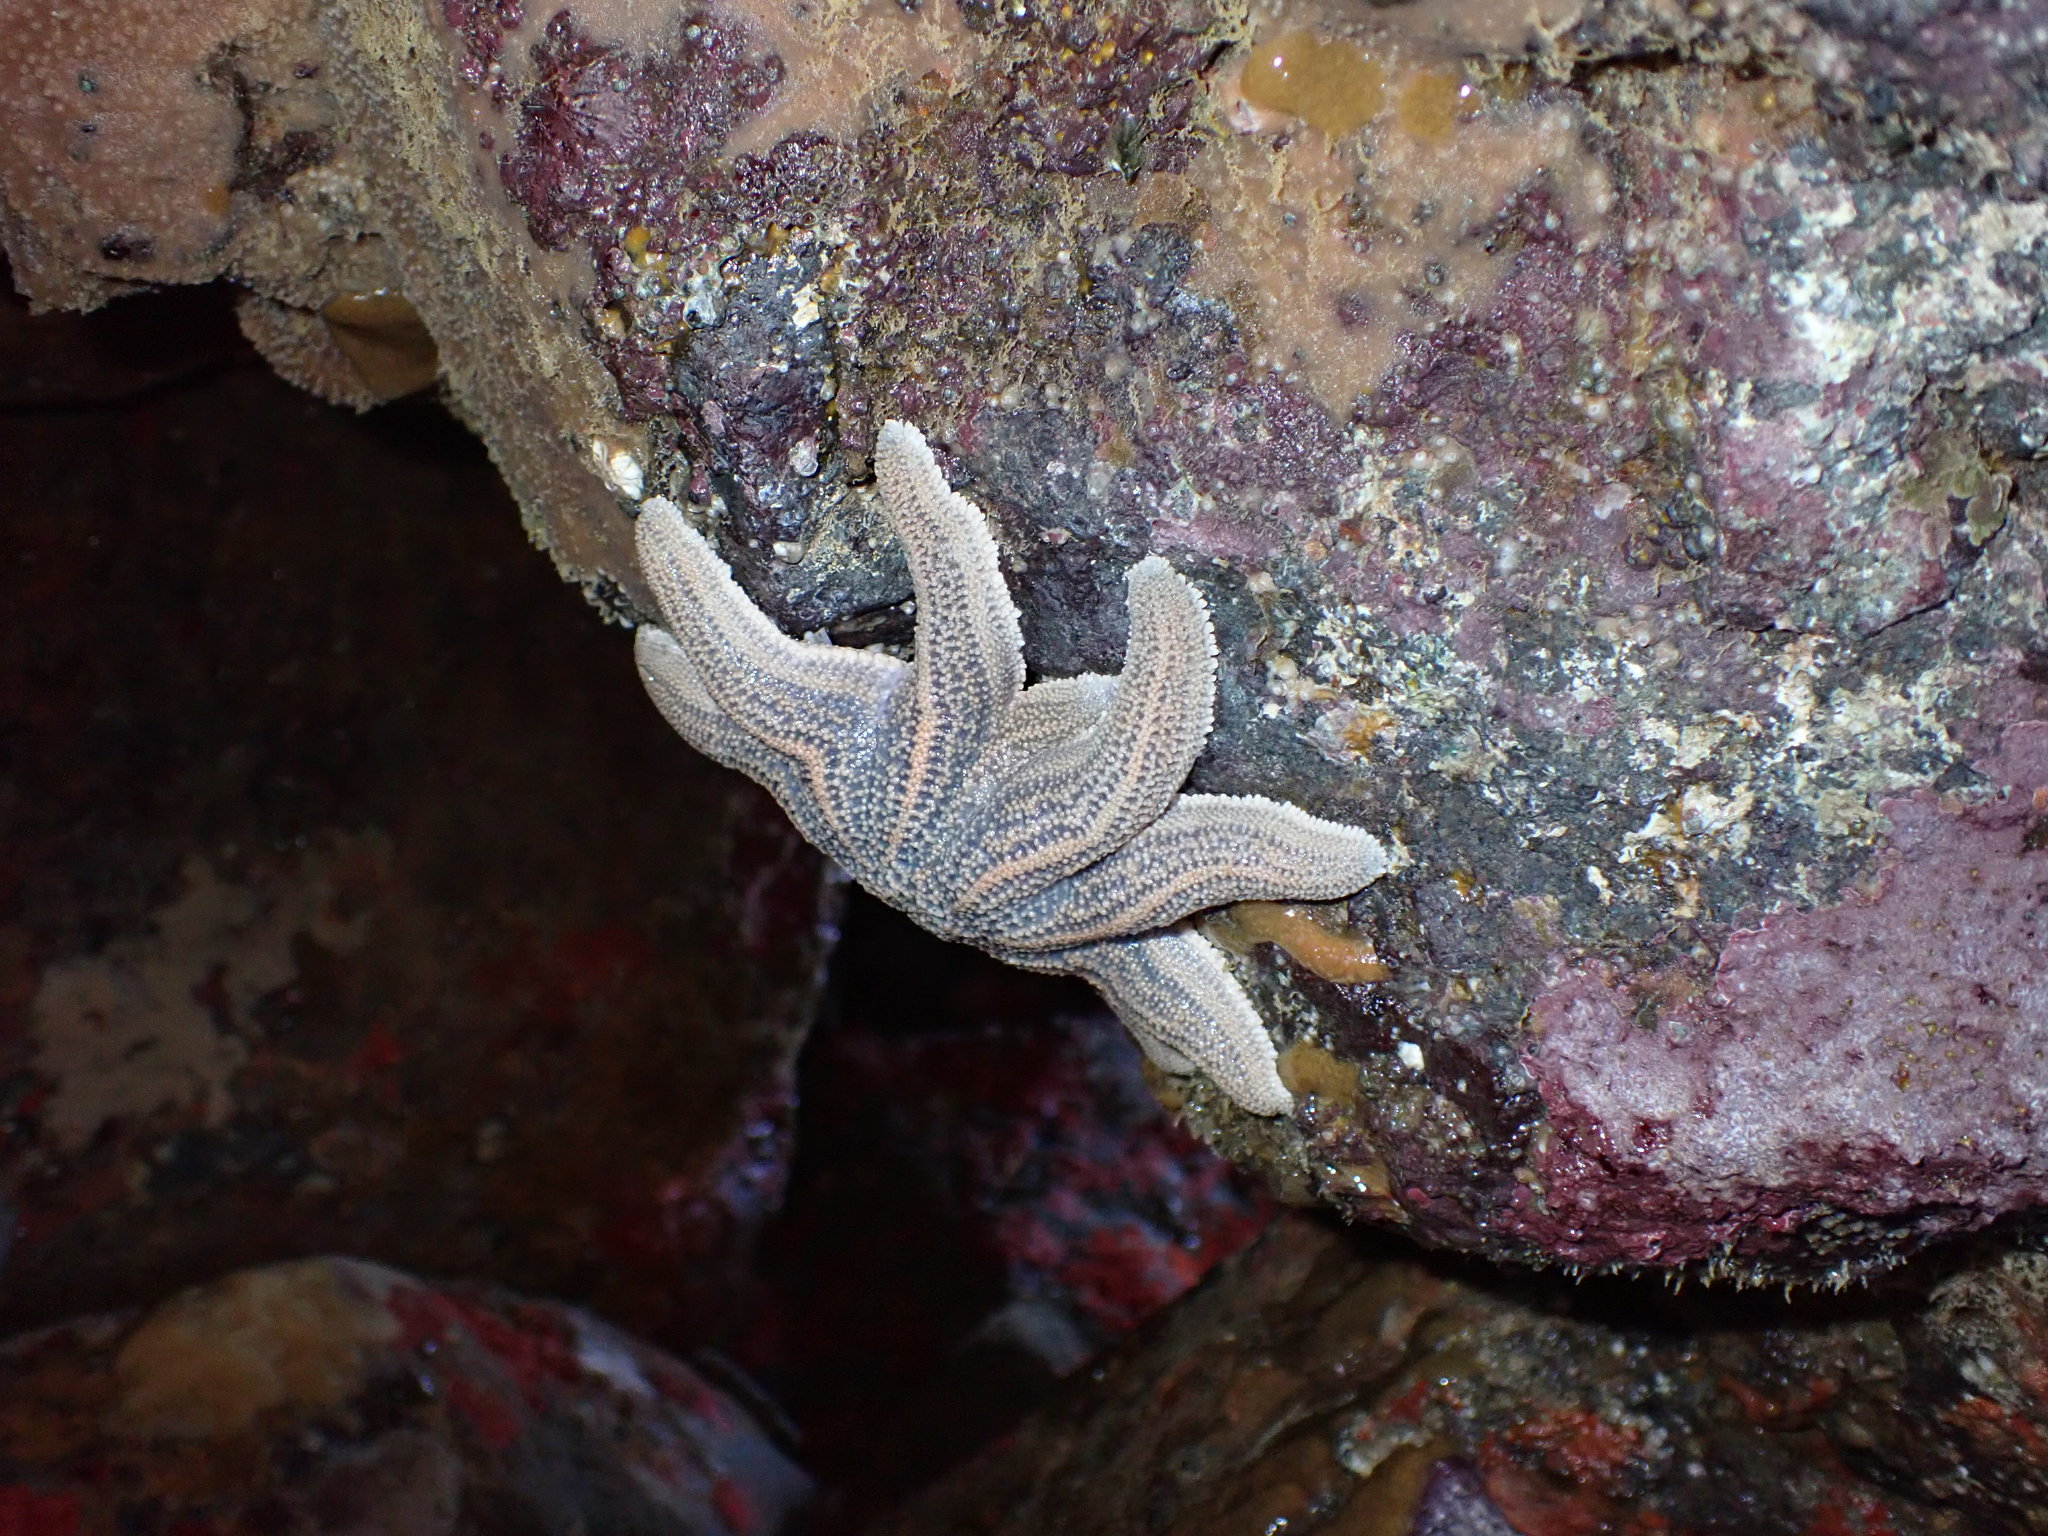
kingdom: Animalia
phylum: Echinodermata
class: Asteroidea
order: Forcipulatida
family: Stichasteridae
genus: Stichaster
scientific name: Stichaster australis
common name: Reef starfish
